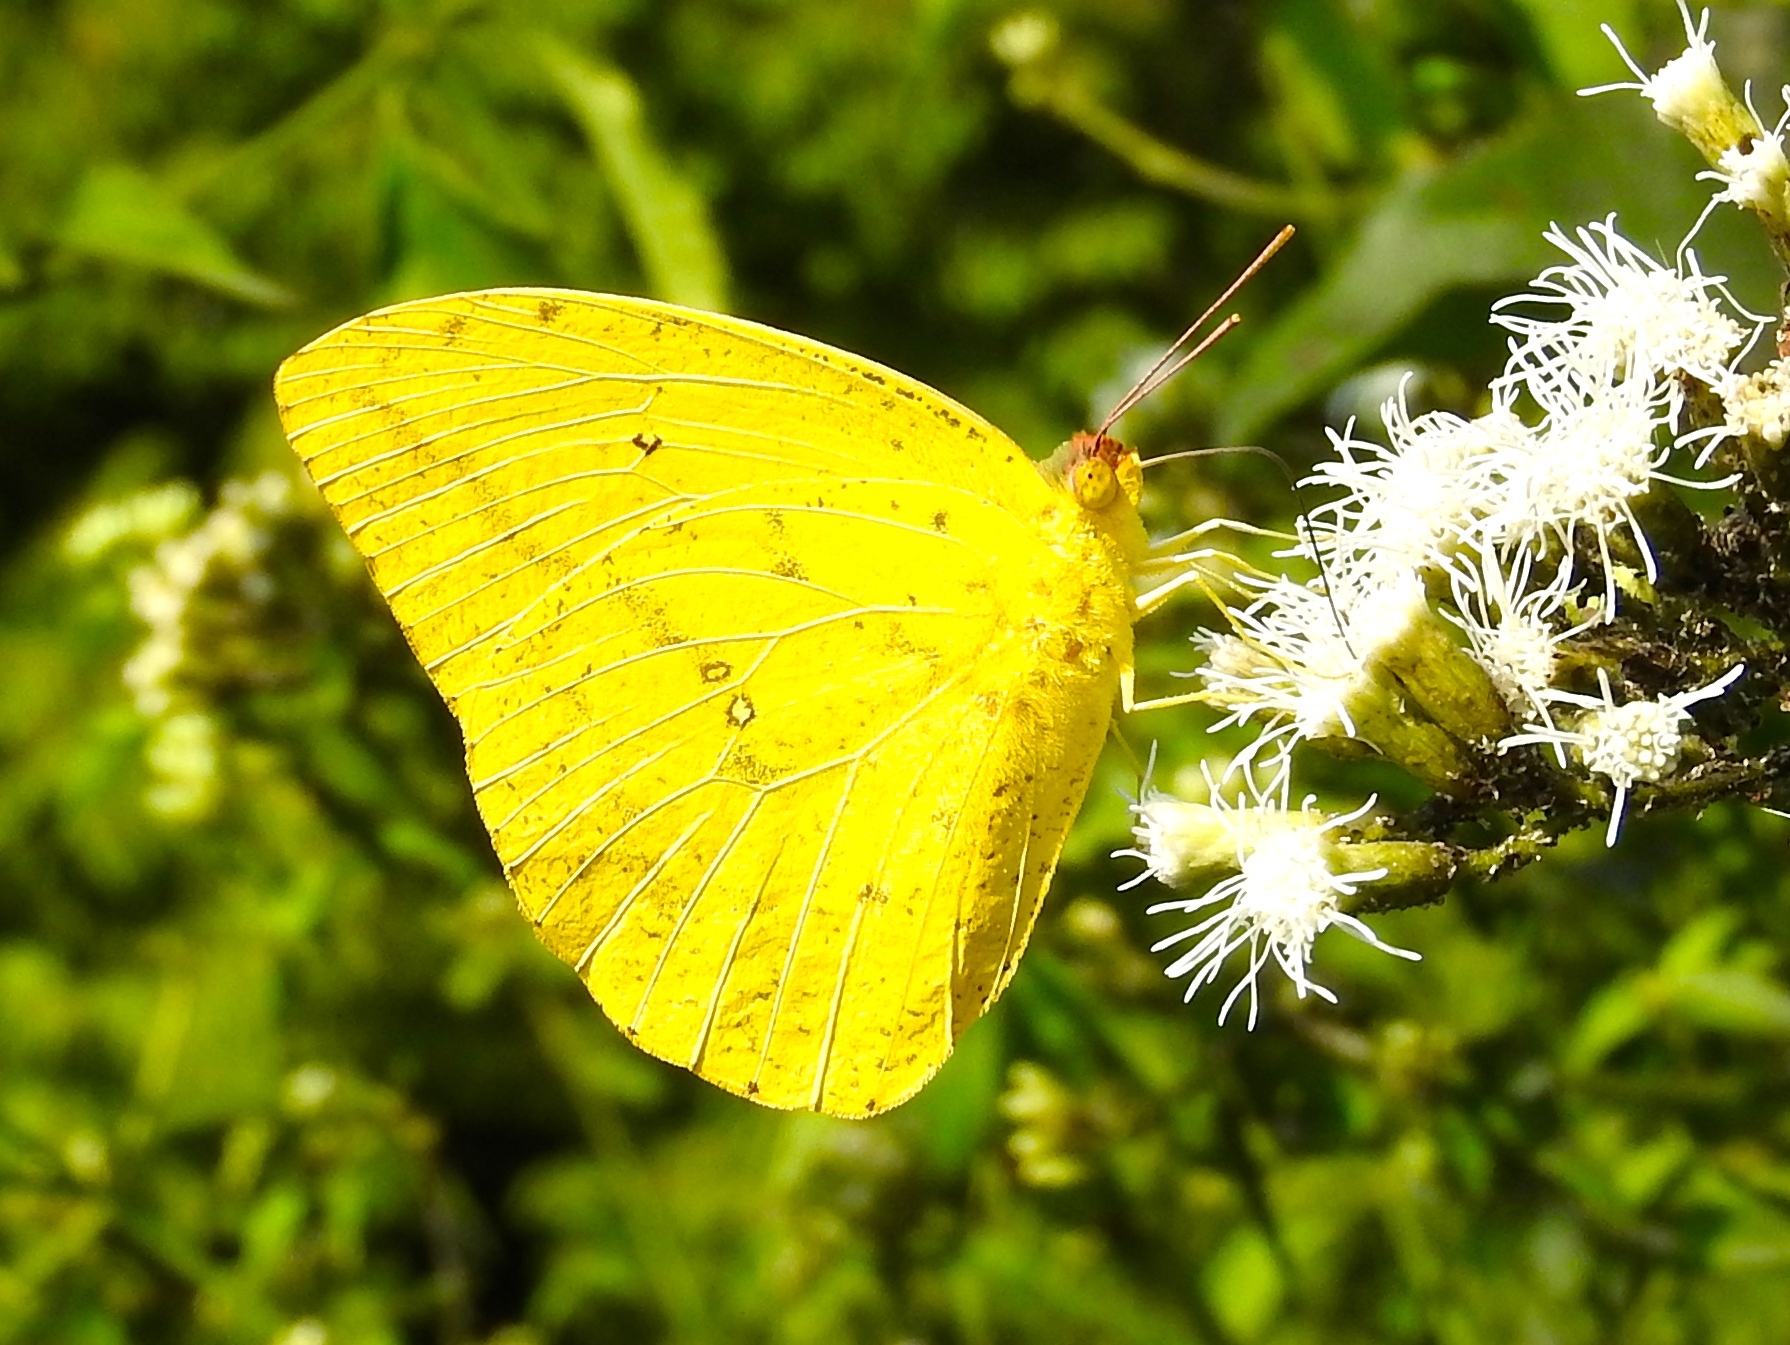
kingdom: Animalia
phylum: Arthropoda
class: Insecta
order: Lepidoptera
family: Pieridae
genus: Phoebis
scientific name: Phoebis agarithe
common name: Large orange sulphur
